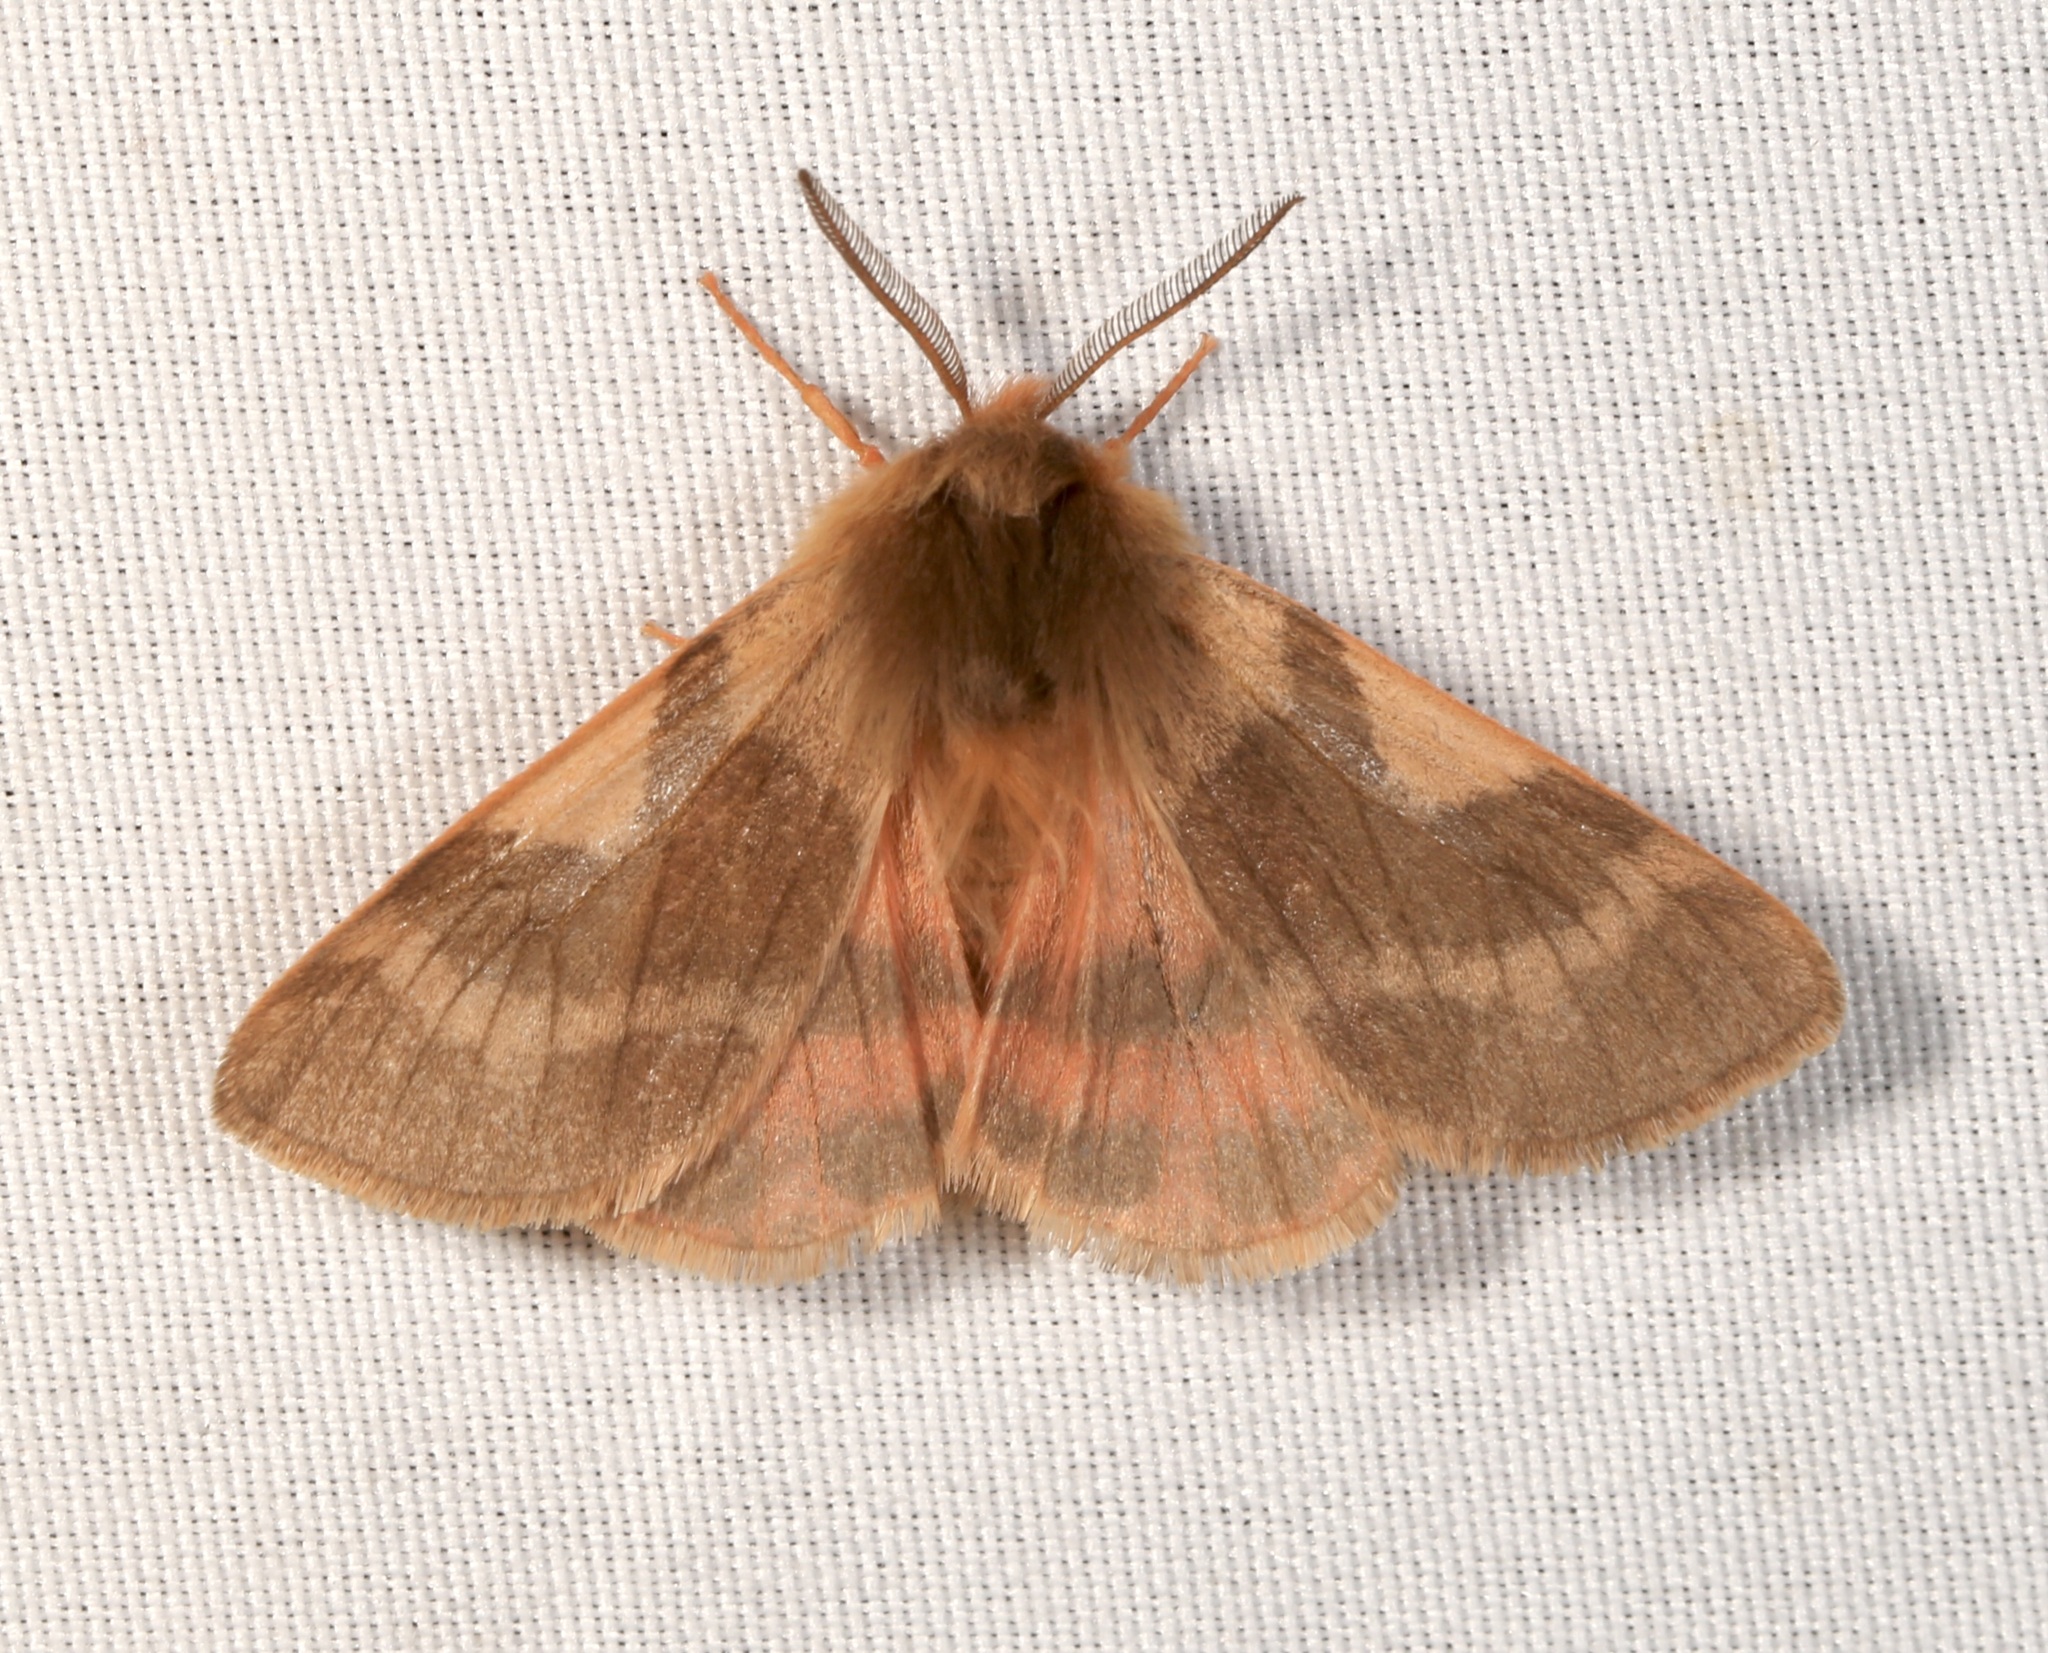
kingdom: Animalia
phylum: Arthropoda
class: Insecta
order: Lepidoptera
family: Erebidae
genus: Chelis
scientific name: Chelis beanii
